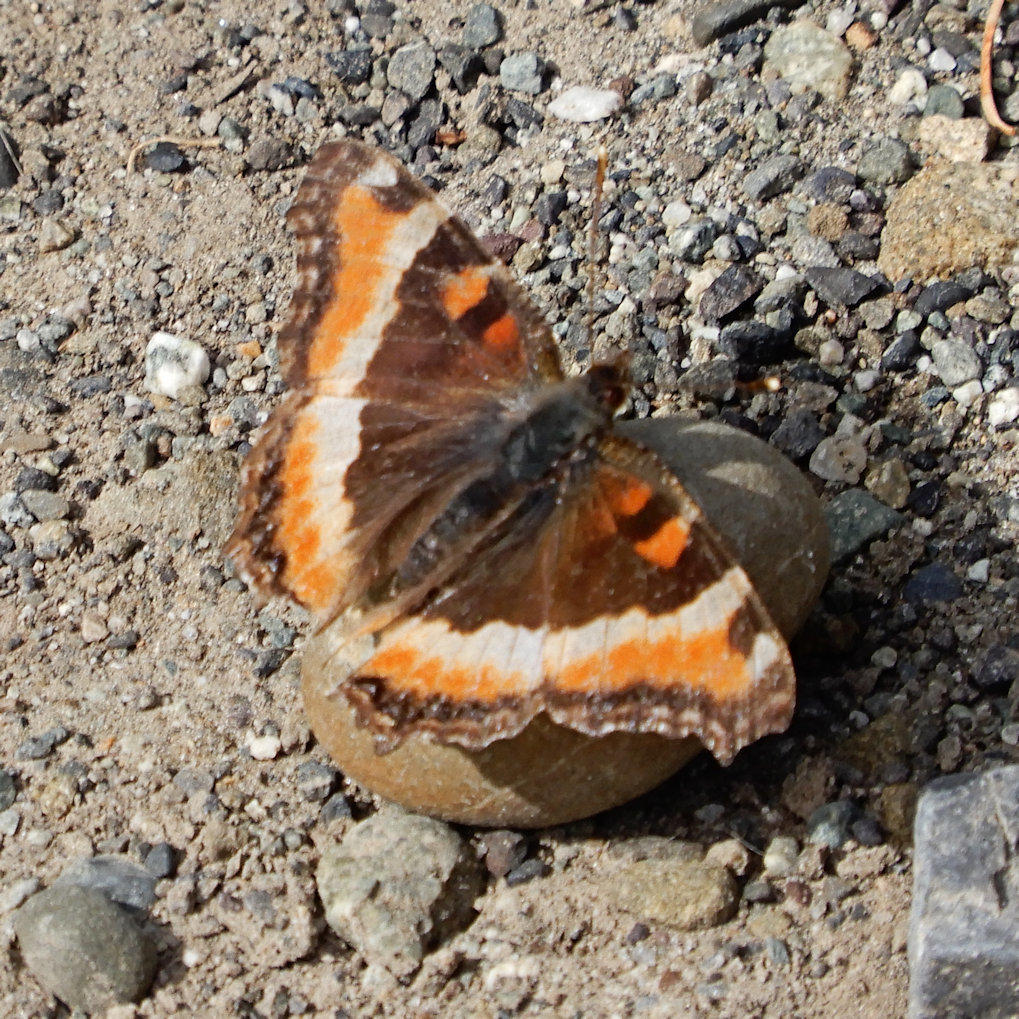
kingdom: Animalia
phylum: Arthropoda
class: Insecta
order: Lepidoptera
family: Nymphalidae
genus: Aglais
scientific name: Aglais milberti
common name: Milbert's tortoiseshell
